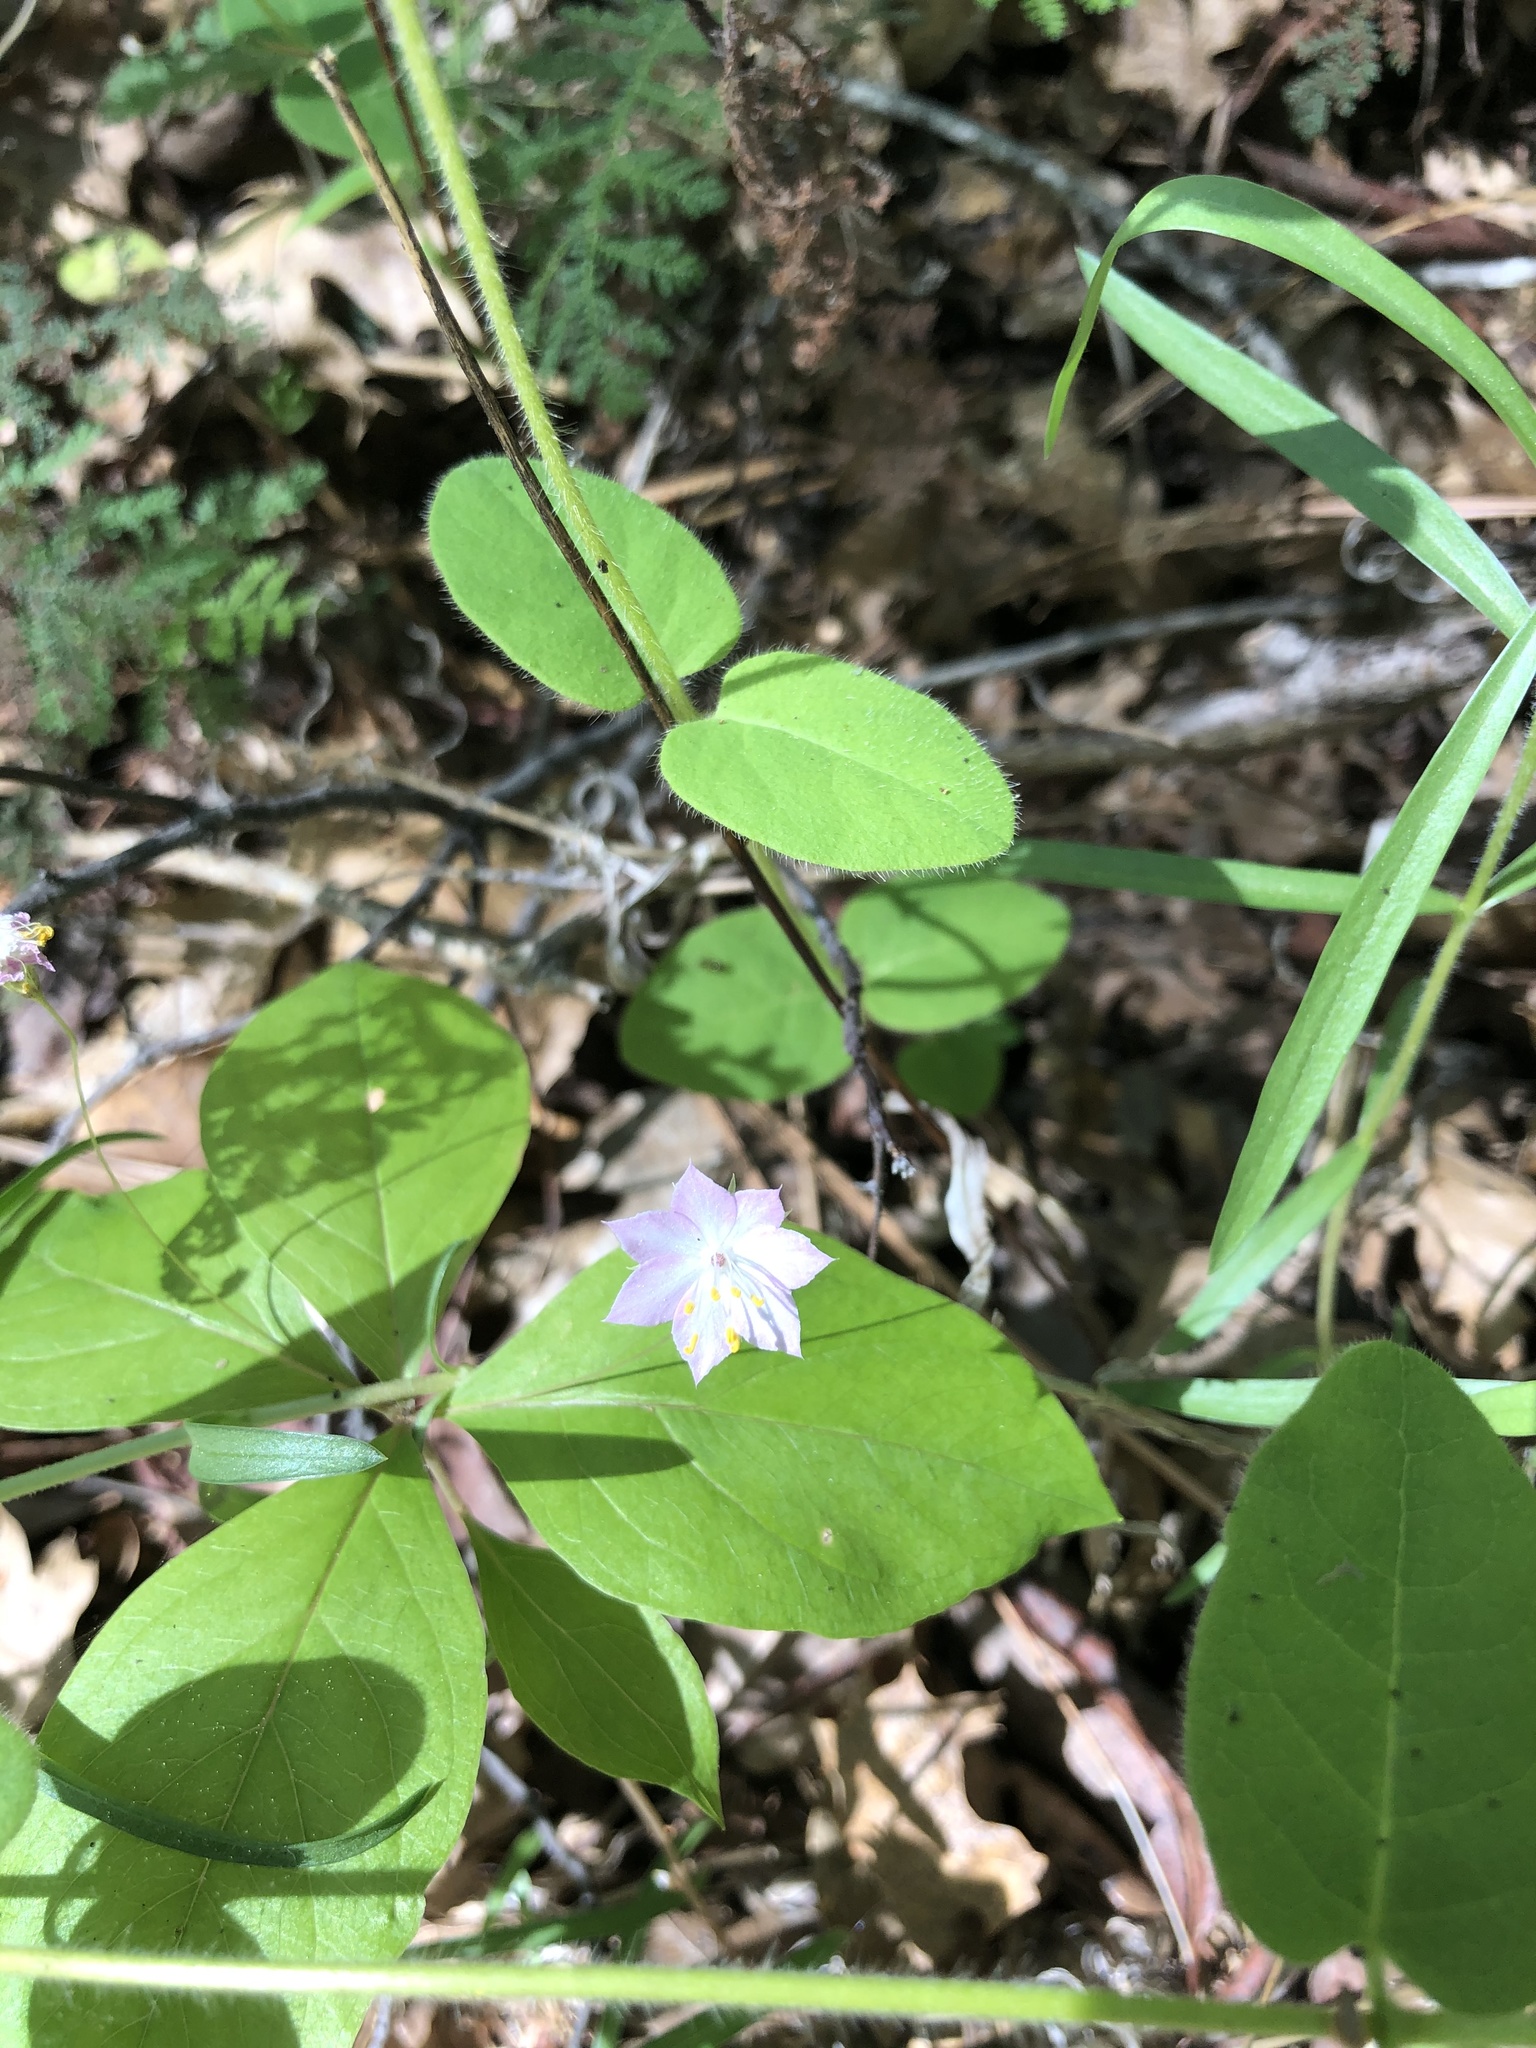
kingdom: Plantae
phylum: Tracheophyta
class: Magnoliopsida
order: Ericales
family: Primulaceae
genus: Lysimachia
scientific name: Lysimachia latifolia
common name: Pacific starflower
